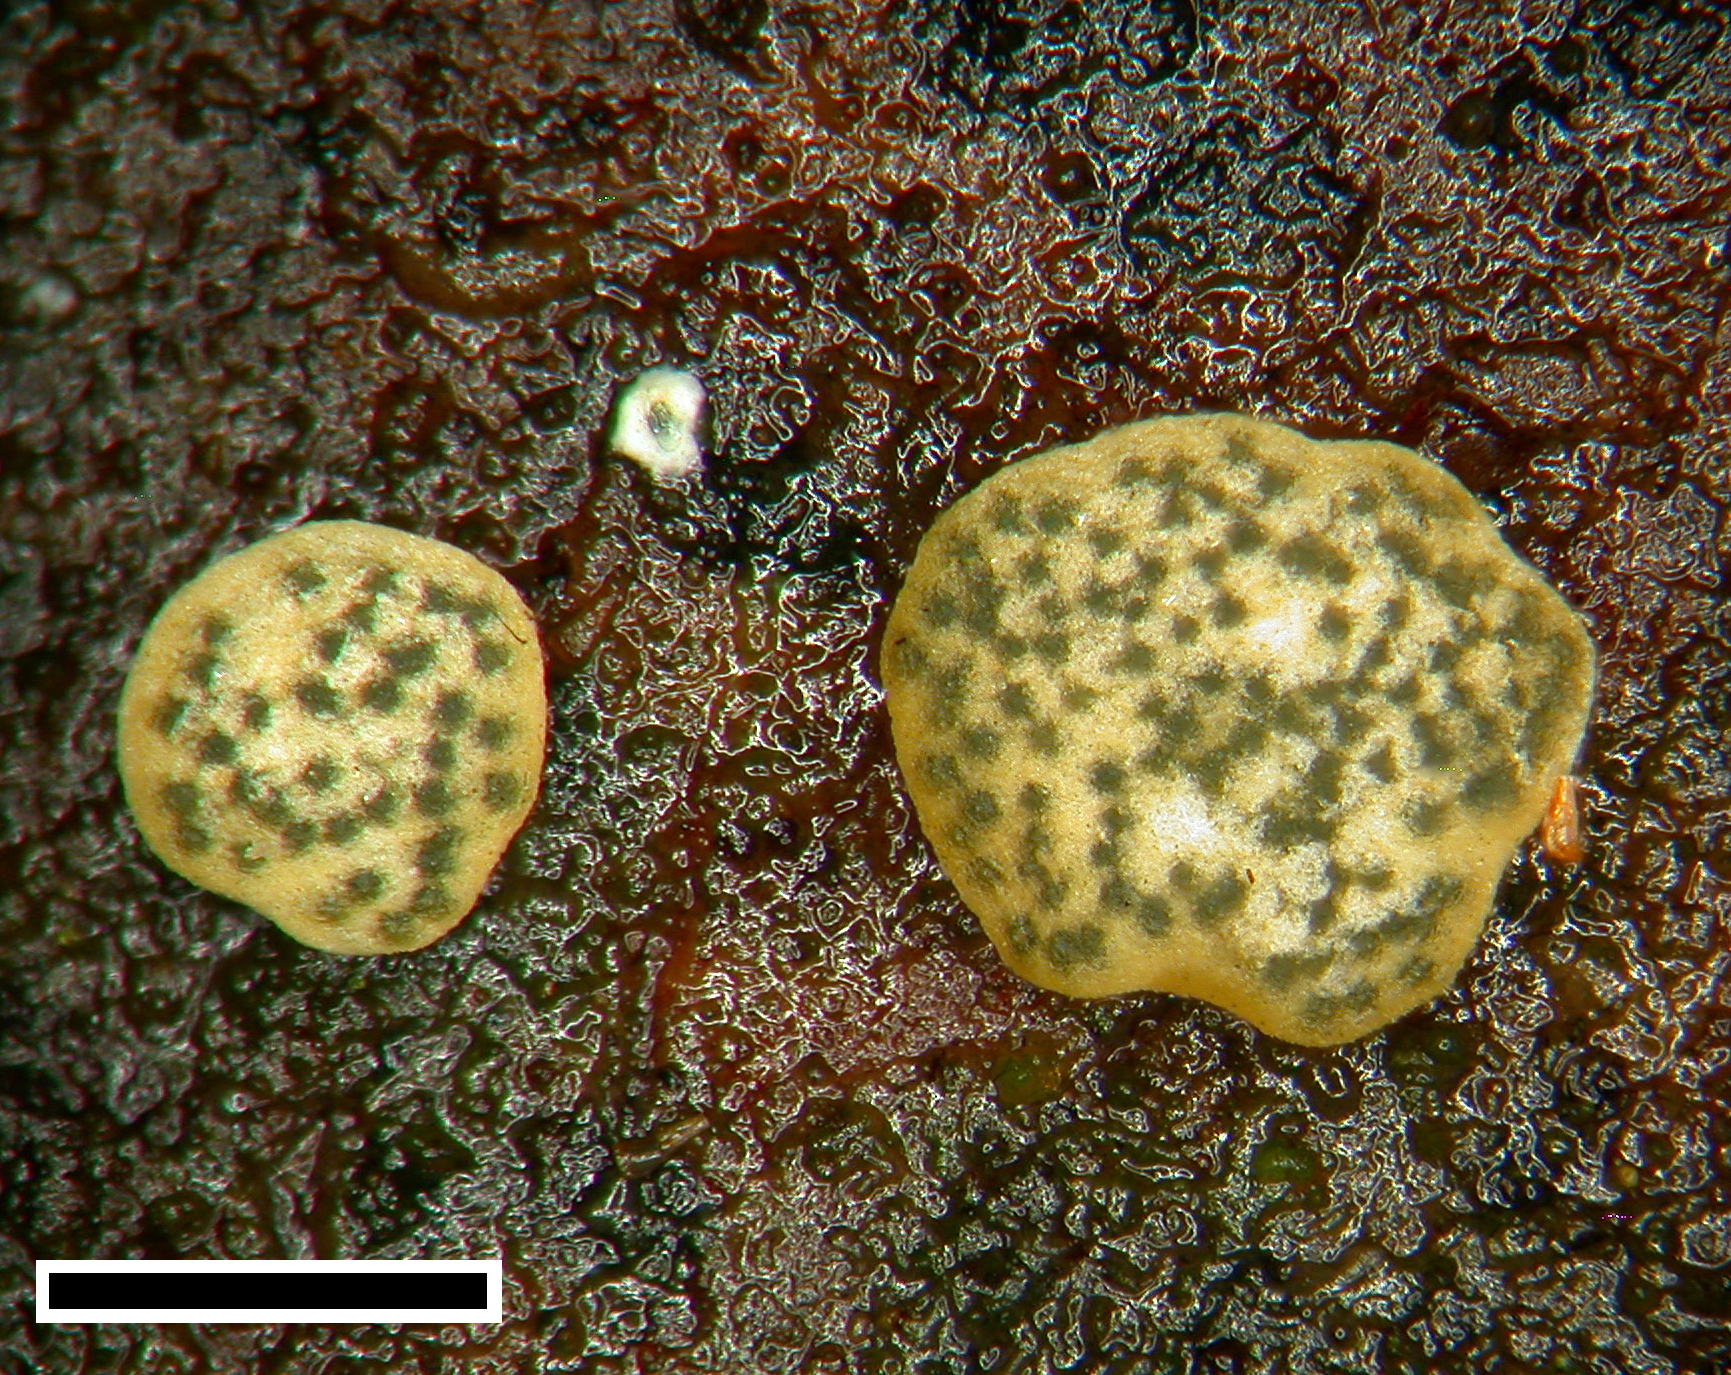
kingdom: Fungi
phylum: Ascomycota
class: Sordariomycetes
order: Hypocreales
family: Hypocreaceae
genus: Trichoderma
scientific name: Trichoderma catoptron
